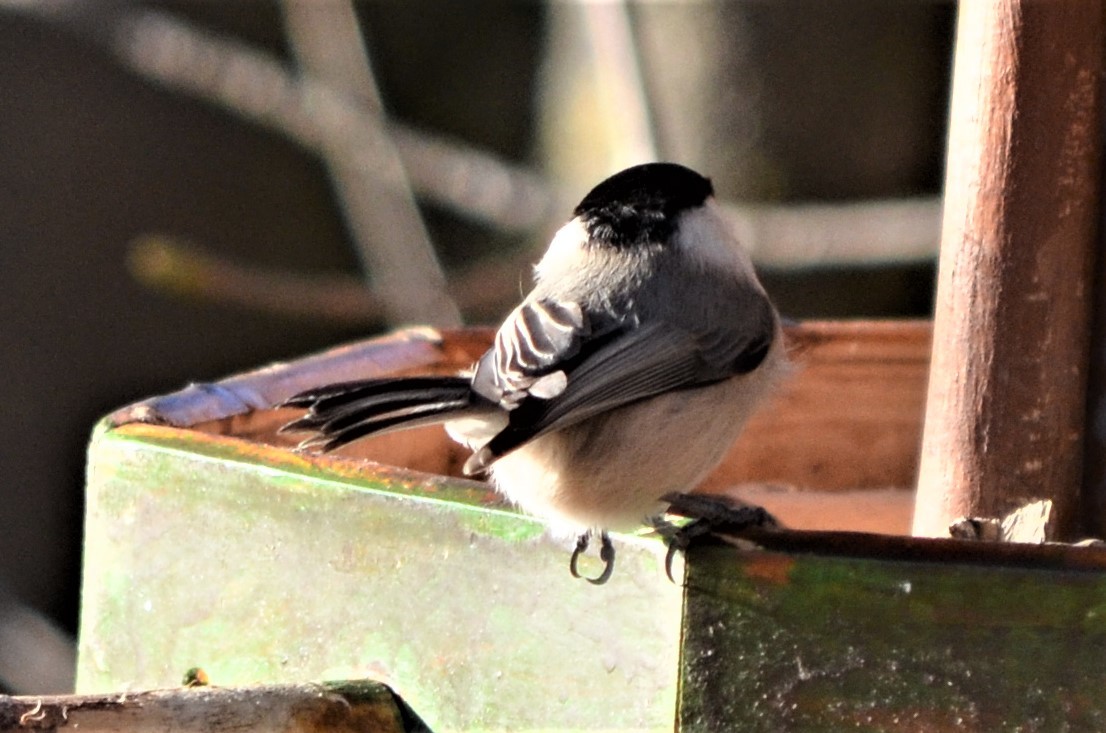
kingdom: Animalia
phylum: Chordata
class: Aves
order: Passeriformes
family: Paridae
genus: Poecile
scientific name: Poecile montanus
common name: Willow tit
